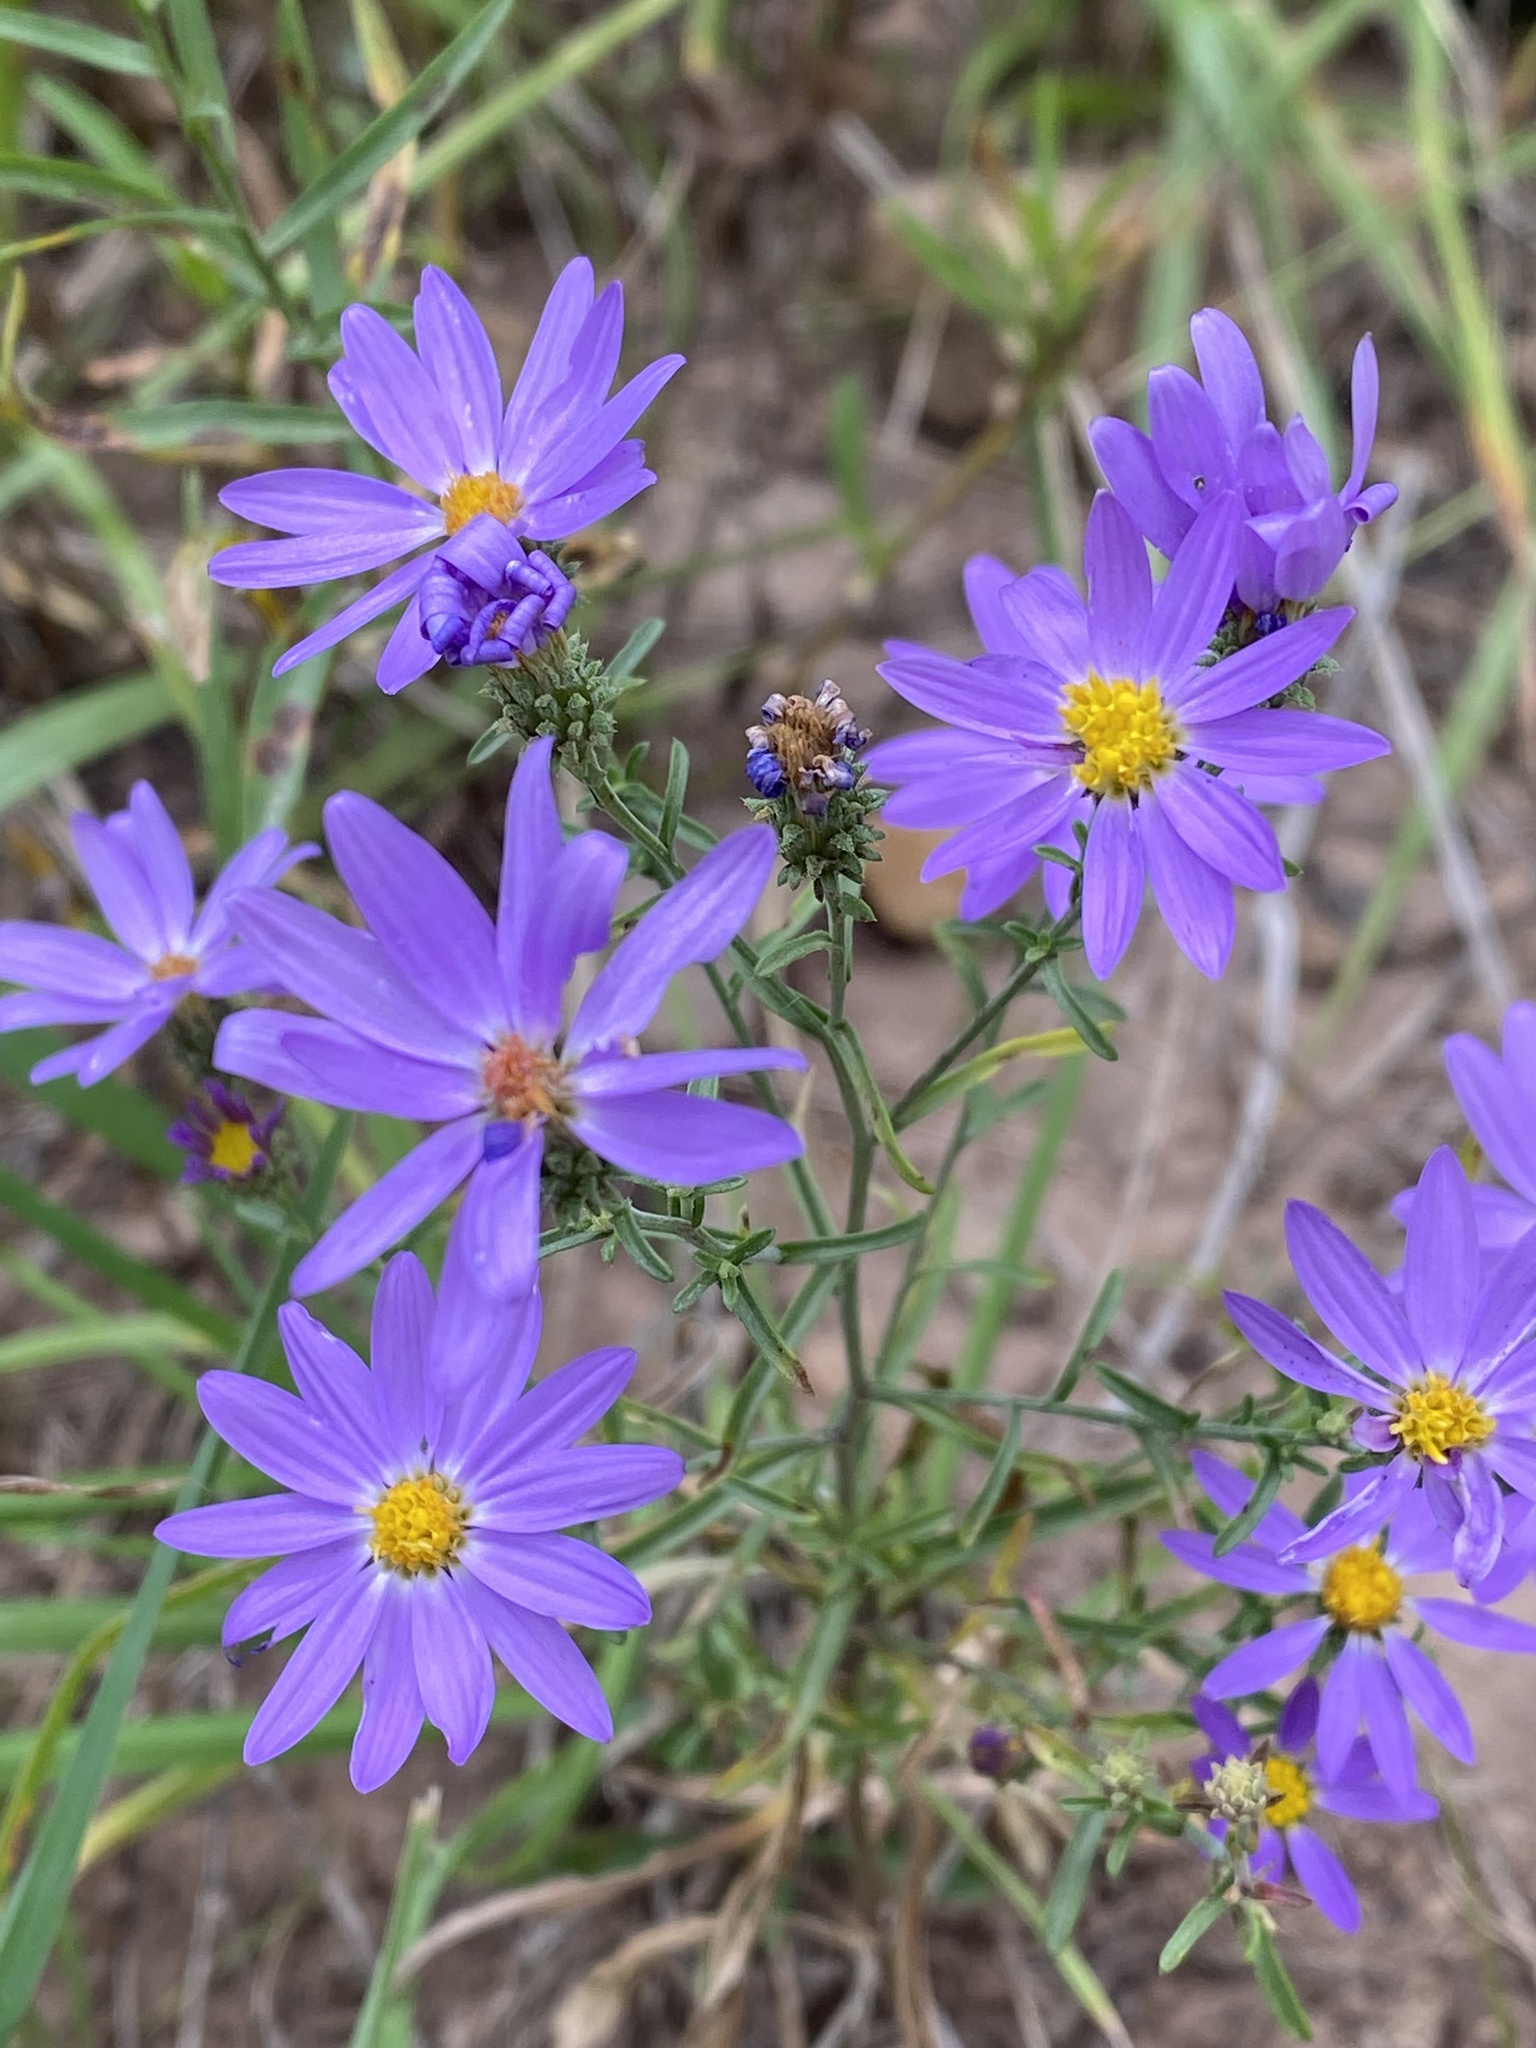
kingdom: Plantae
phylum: Tracheophyta
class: Magnoliopsida
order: Asterales
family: Asteraceae
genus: Dieteria
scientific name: Dieteria canescens
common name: Hoary-aster
